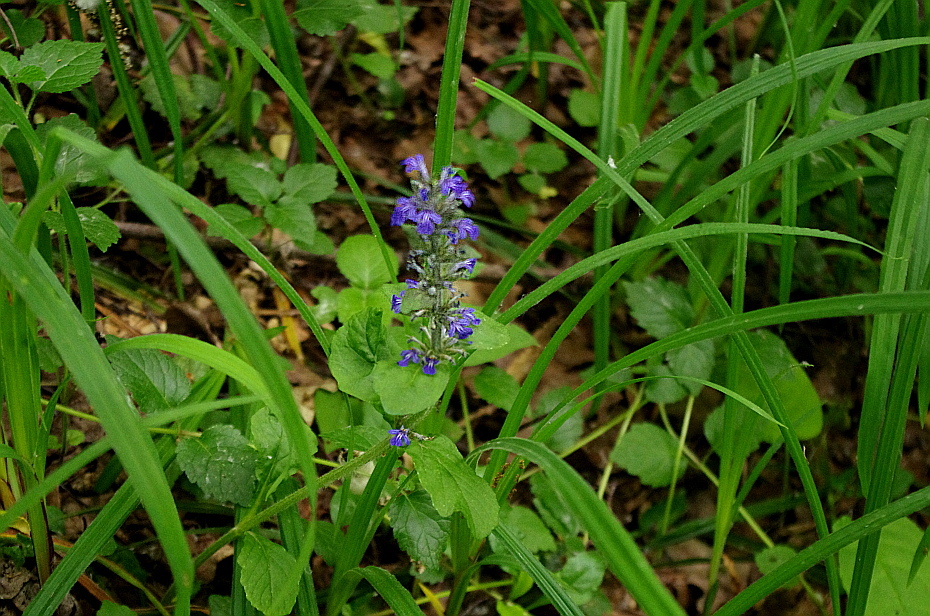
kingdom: Plantae
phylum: Tracheophyta
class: Magnoliopsida
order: Lamiales
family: Lamiaceae
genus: Ajuga
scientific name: Ajuga reptans
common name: Bugle
